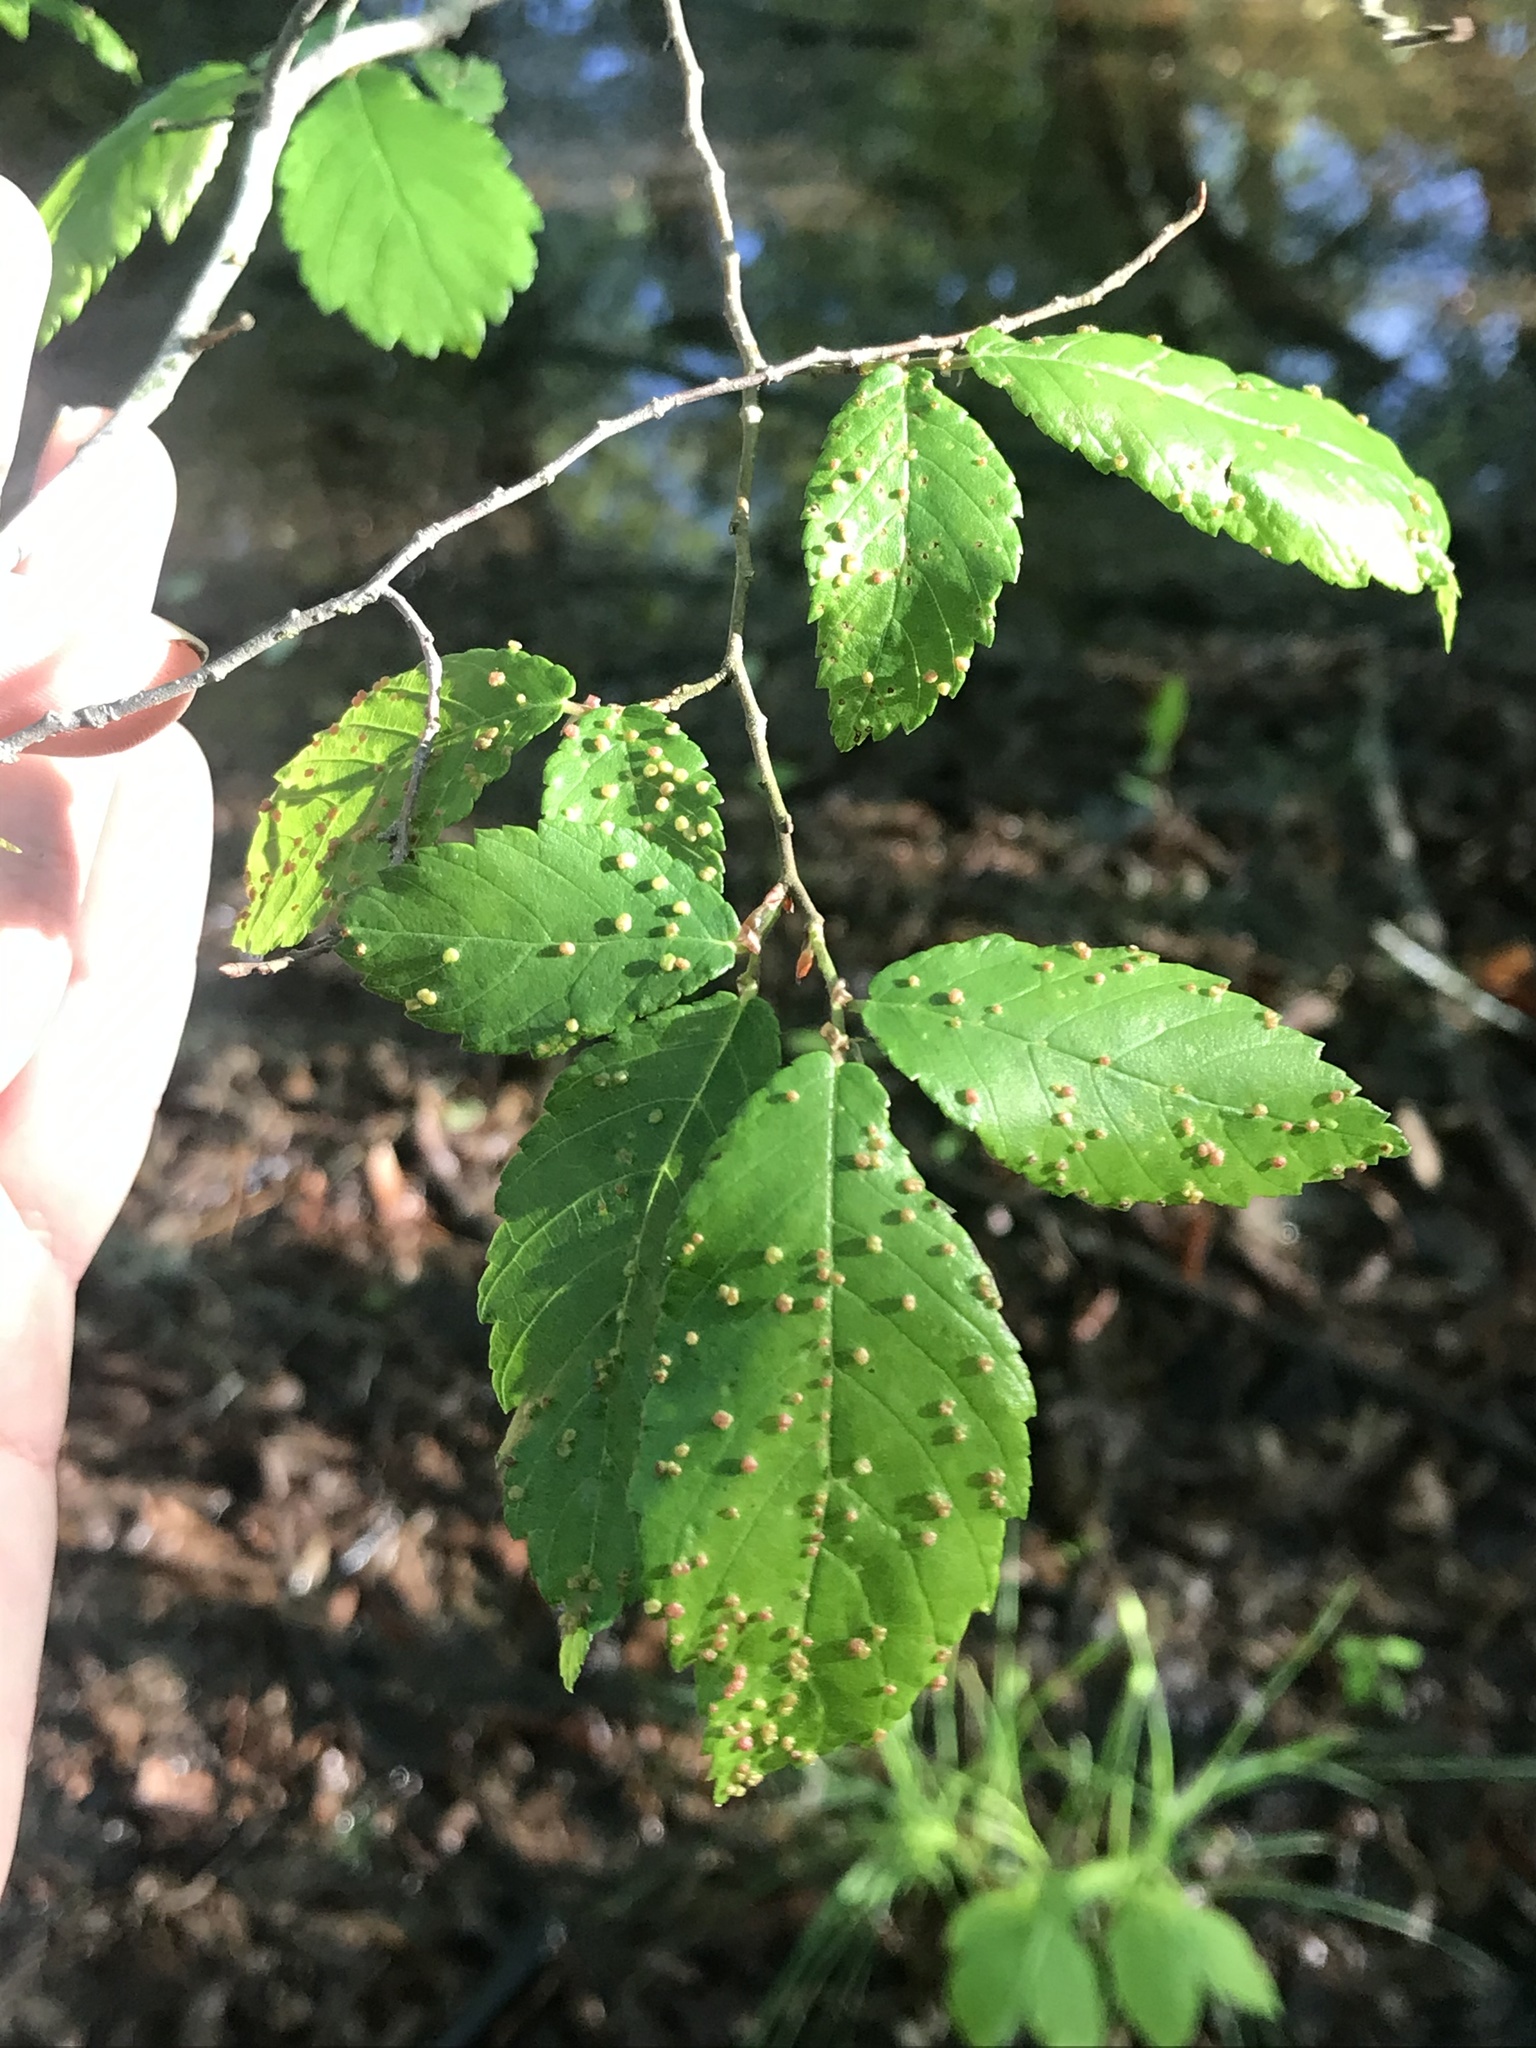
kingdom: Animalia
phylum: Arthropoda
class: Arachnida
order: Trombidiformes
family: Eriophyidae
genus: Aceria
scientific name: Aceria brevipunctata
